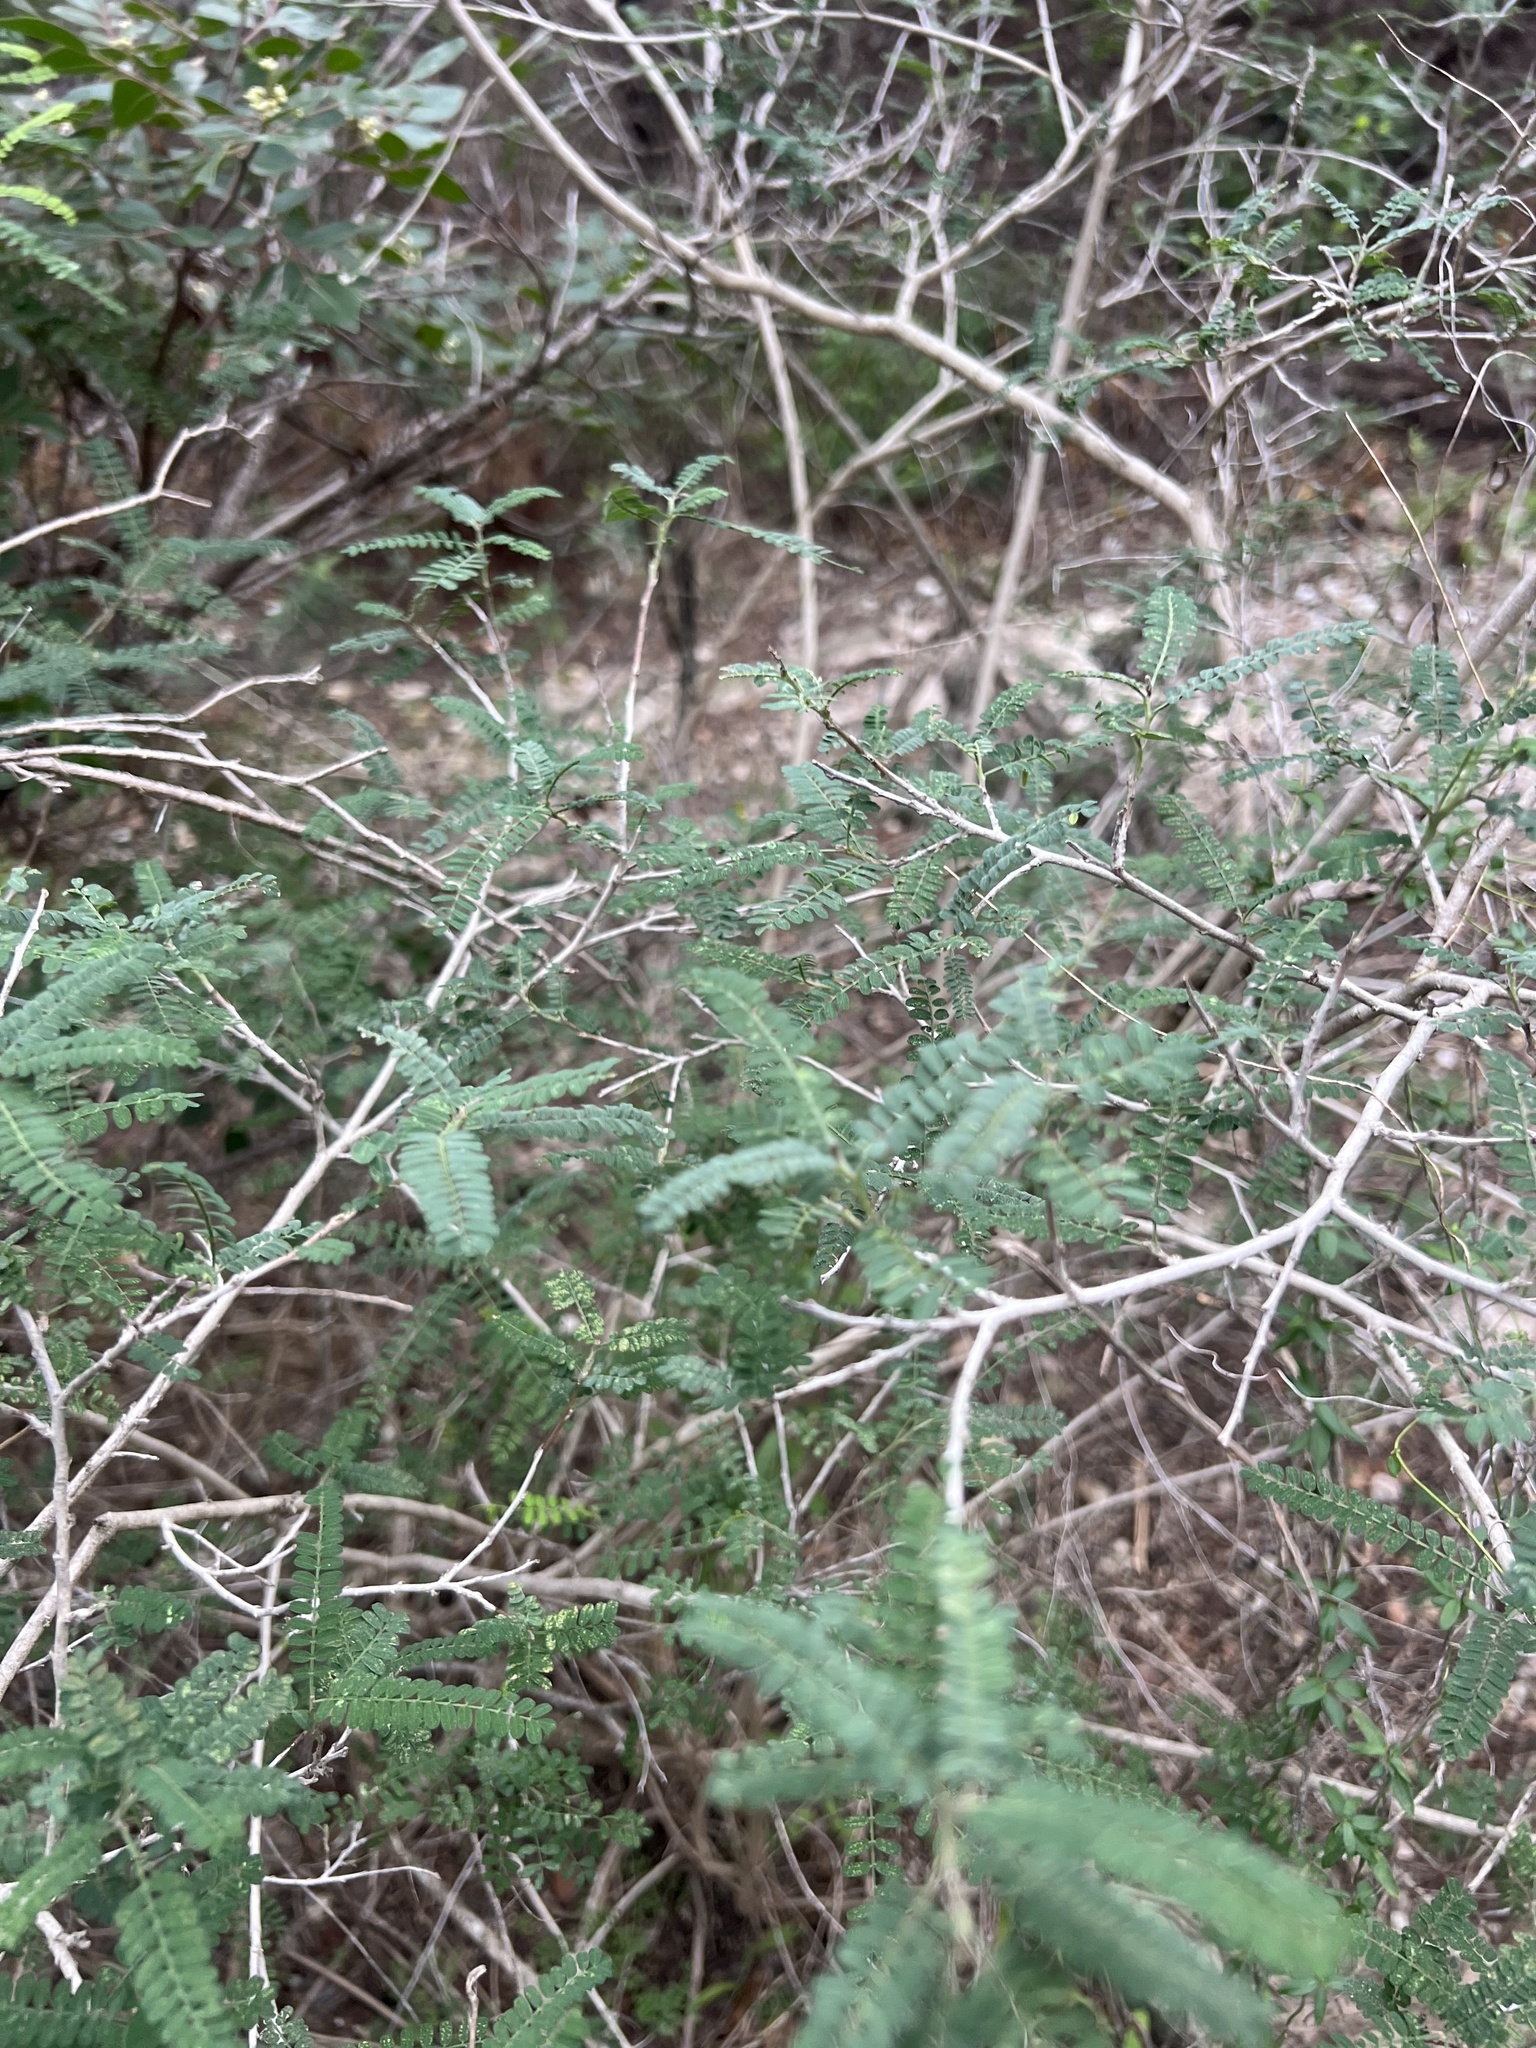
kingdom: Plantae
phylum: Tracheophyta
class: Magnoliopsida
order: Fabales
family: Fabaceae
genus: Eysenhardtia
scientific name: Eysenhardtia texana
